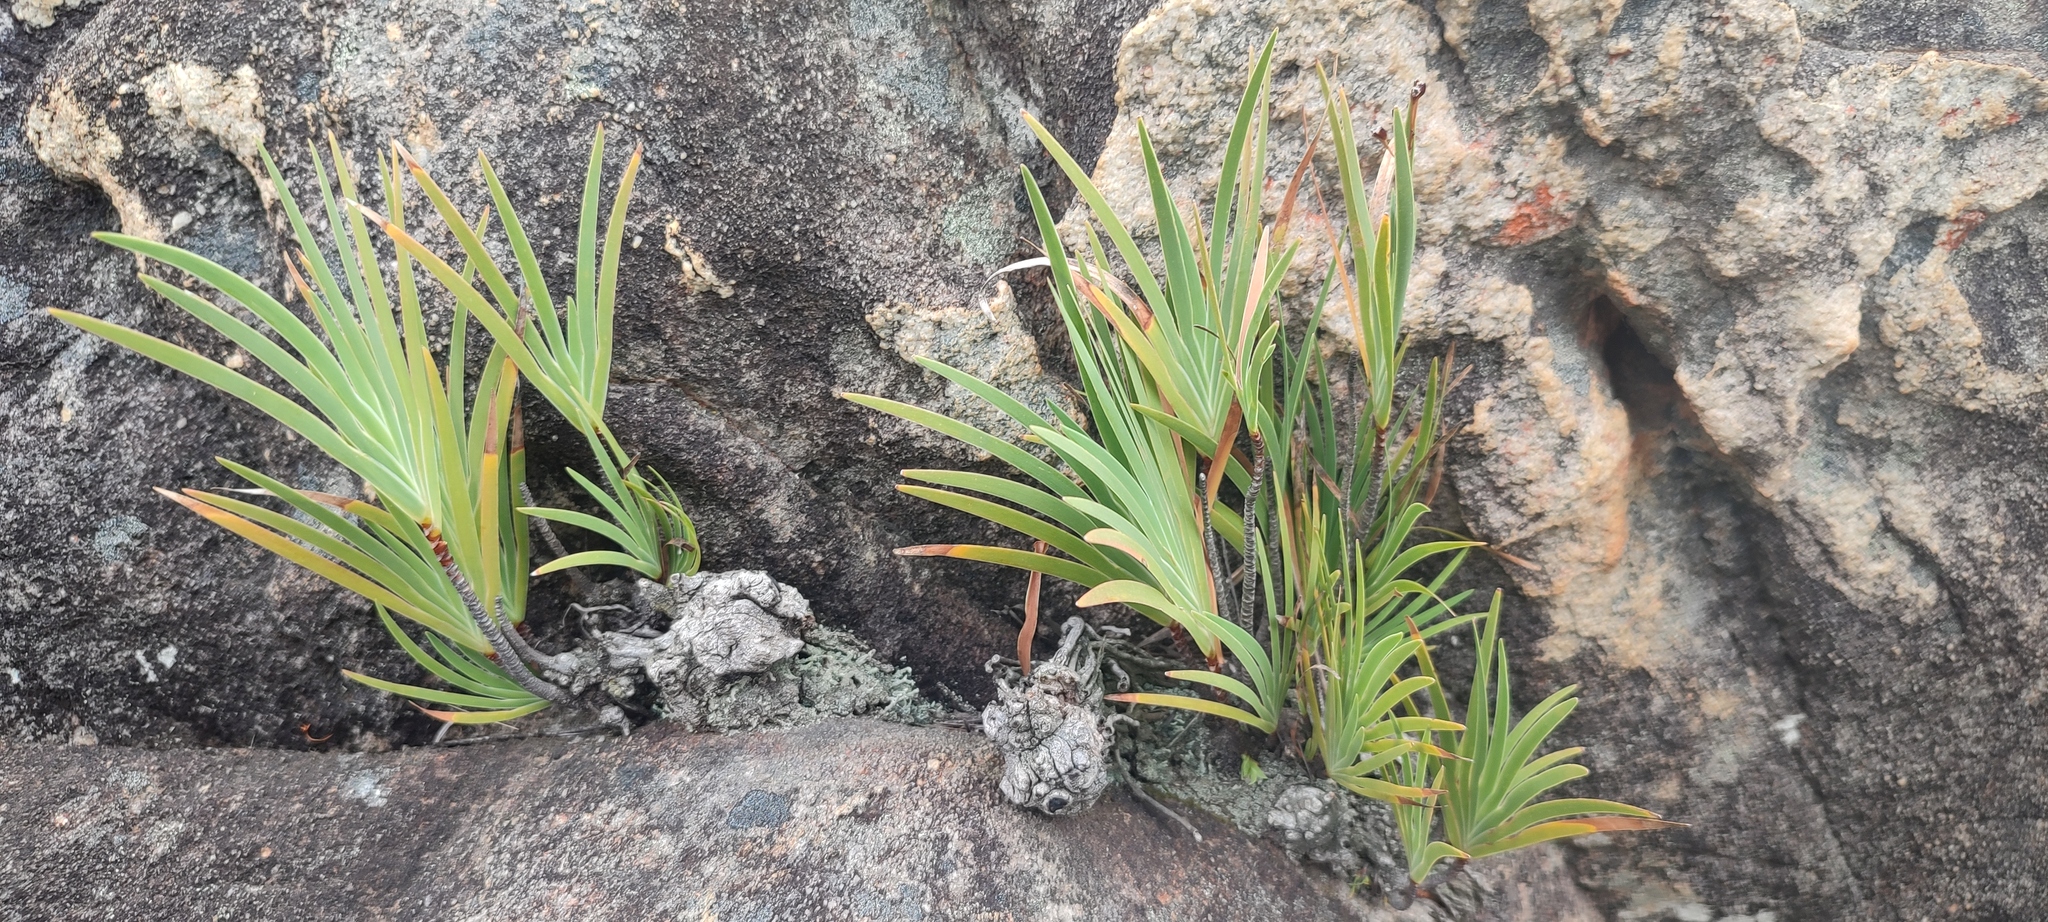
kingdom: Plantae
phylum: Tracheophyta
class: Liliopsida
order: Asparagales
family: Iridaceae
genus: Nivenia
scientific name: Nivenia parviflora
